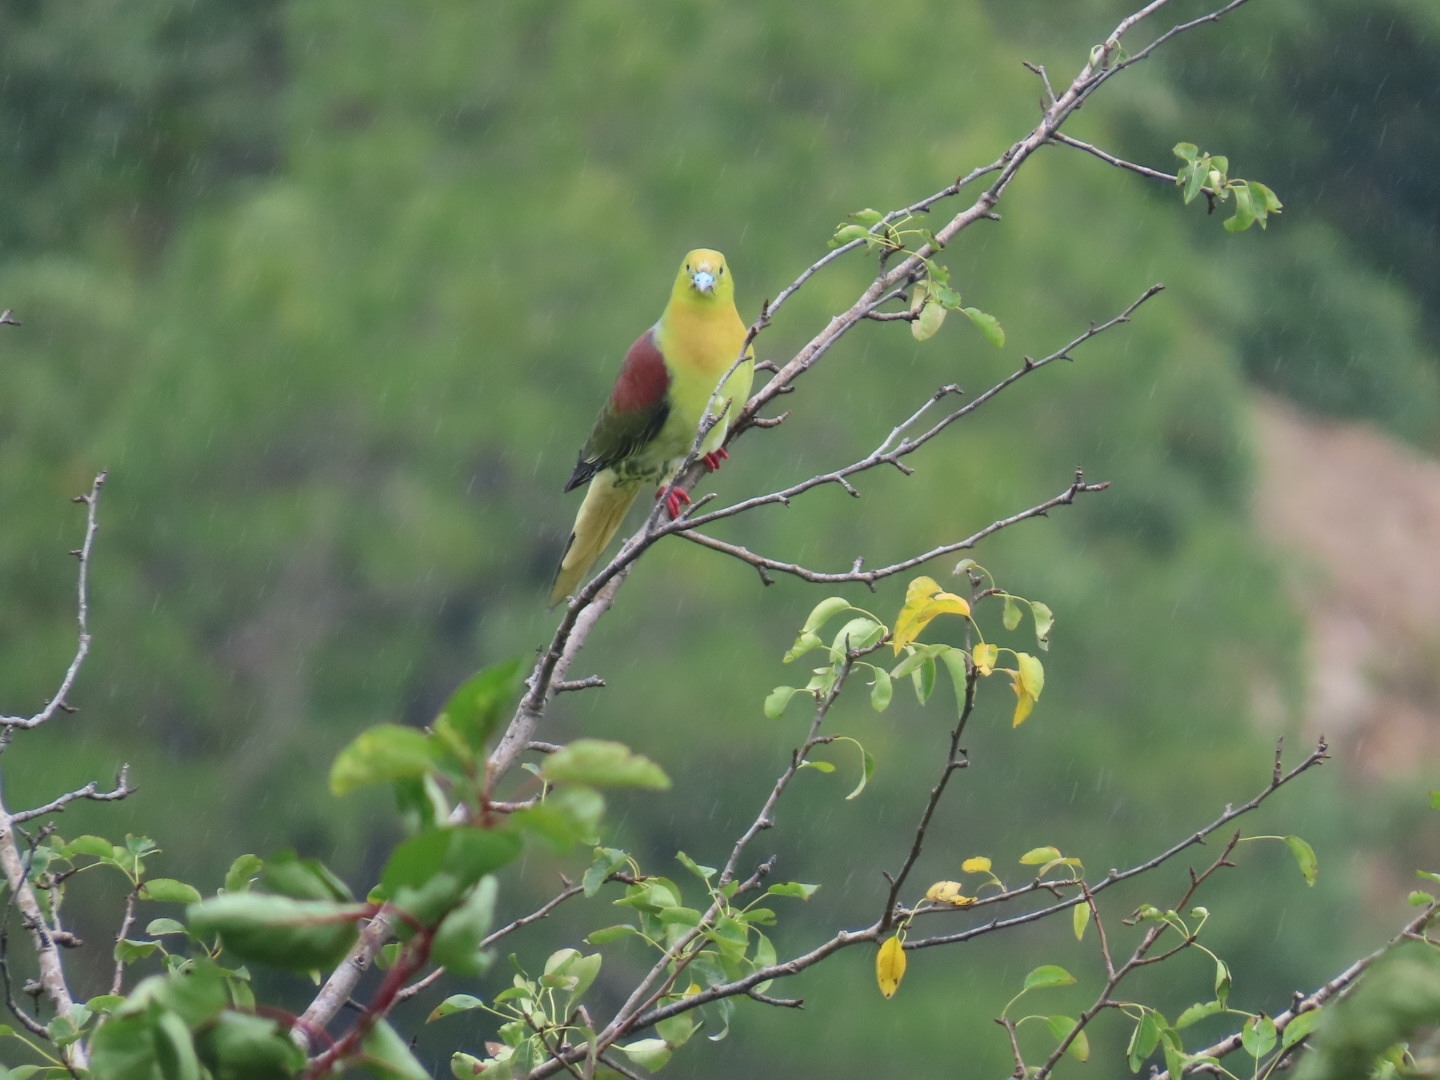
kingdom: Animalia
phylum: Chordata
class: Aves
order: Columbiformes
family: Columbidae
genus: Treron
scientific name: Treron sphenurus
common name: Wedge-tailed green pigeon
